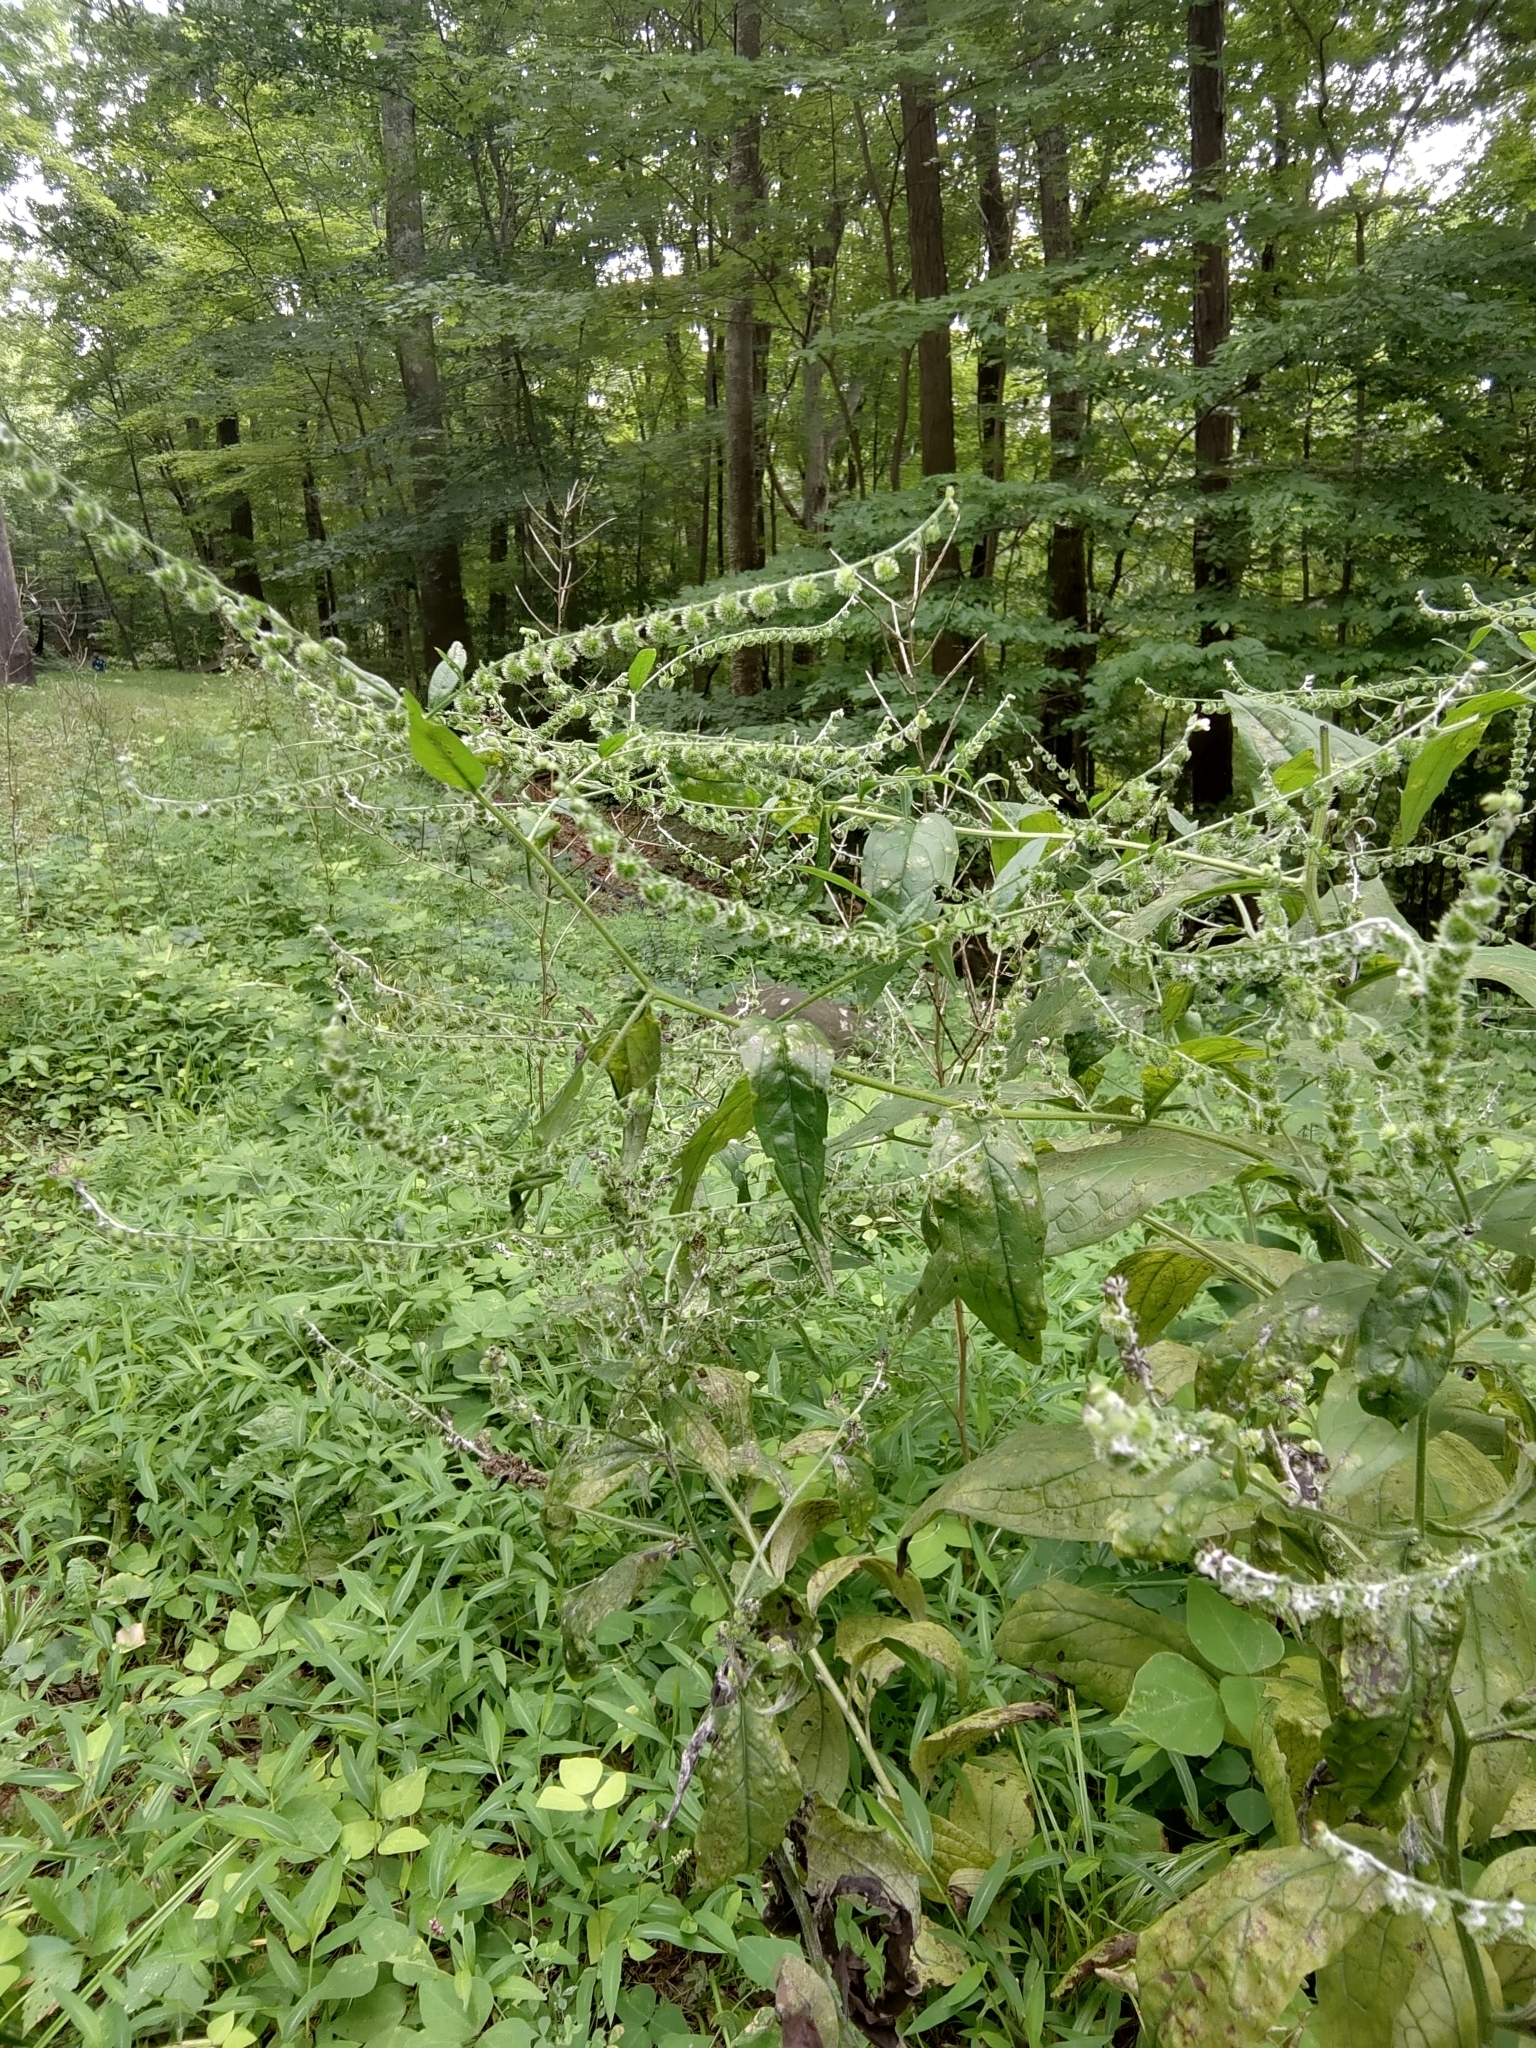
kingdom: Plantae
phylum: Tracheophyta
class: Magnoliopsida
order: Boraginales
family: Boraginaceae
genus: Hackelia
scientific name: Hackelia virginiana
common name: Beggar's-lice
